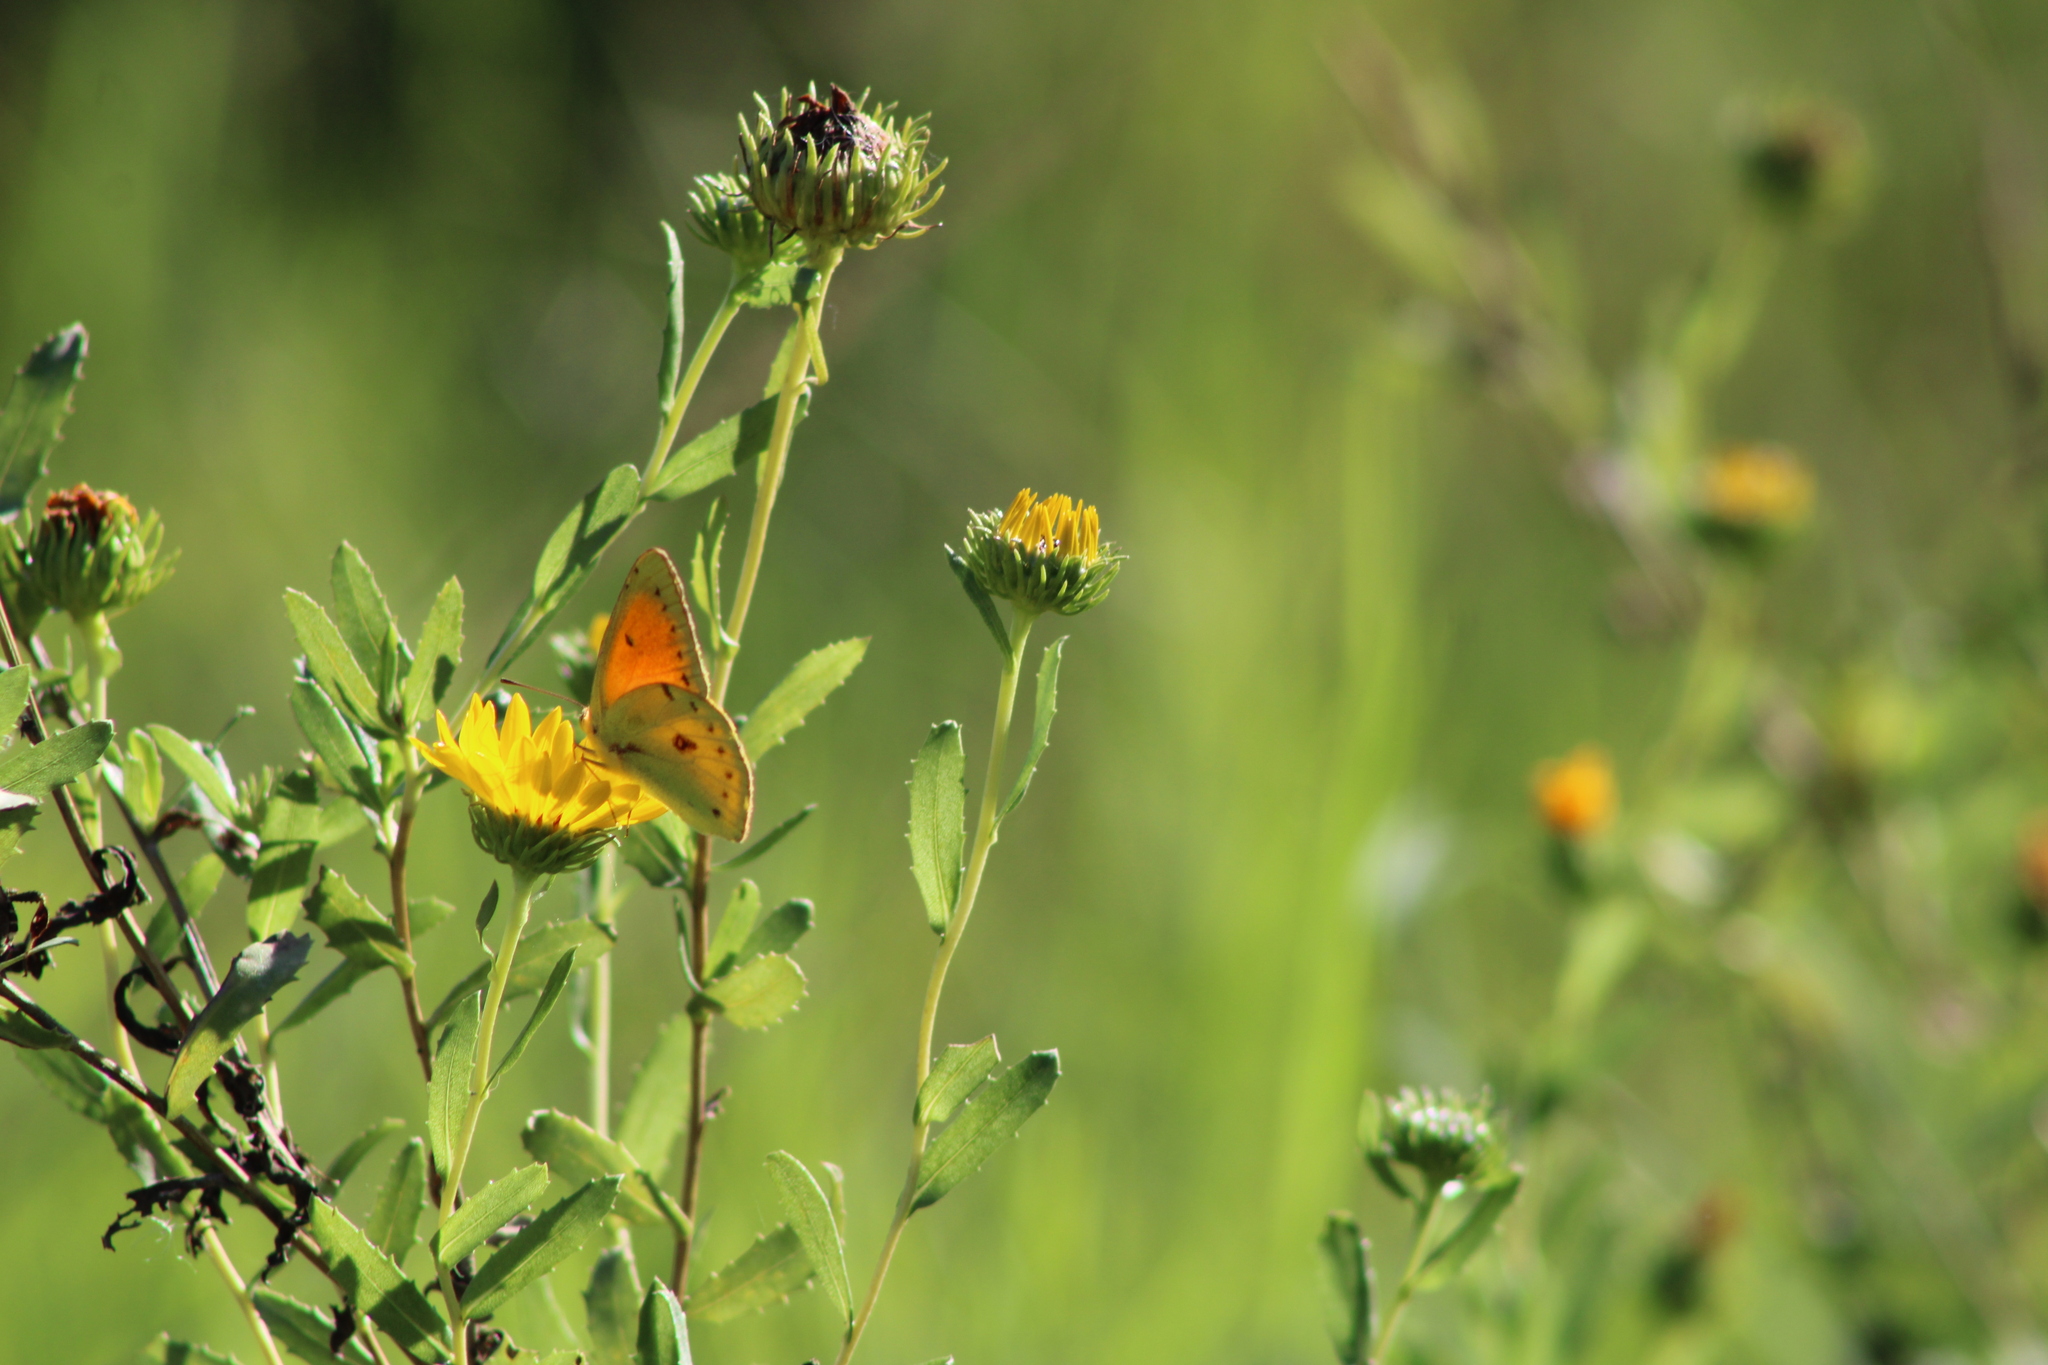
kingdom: Animalia
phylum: Arthropoda
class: Insecta
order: Lepidoptera
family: Pieridae
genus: Colias
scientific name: Colias lesbia
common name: Lesbia clouded yellow
